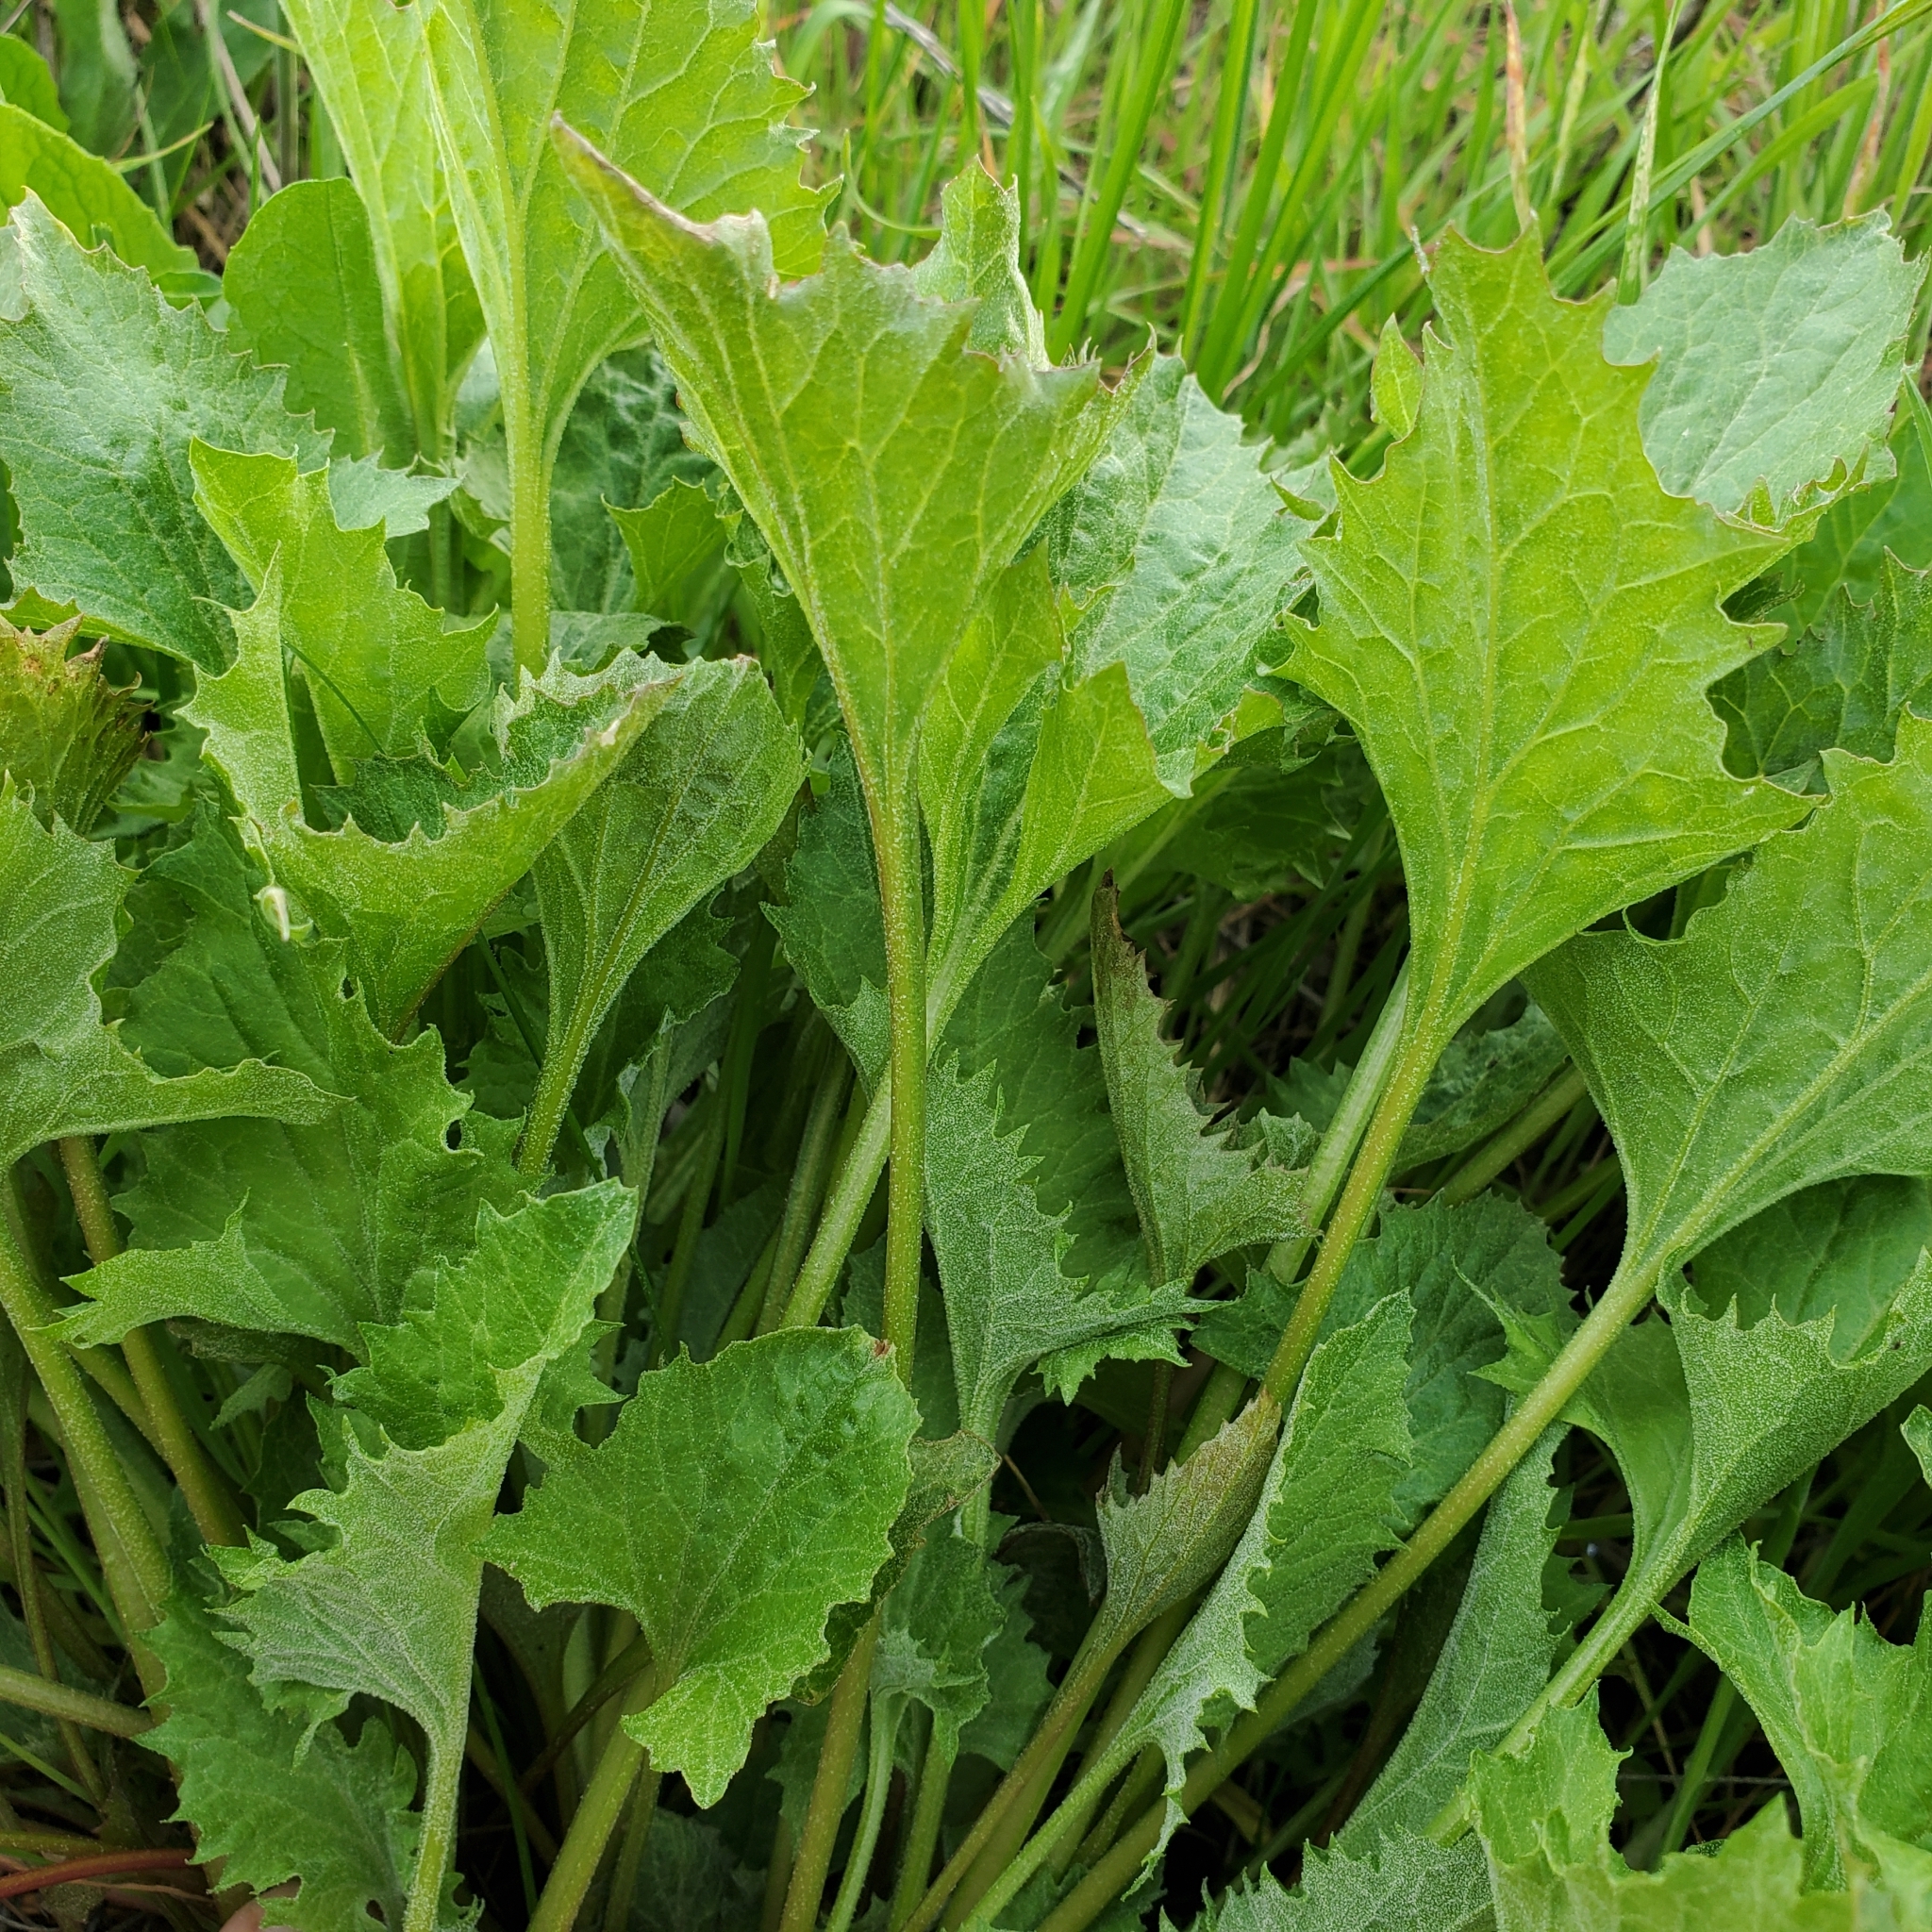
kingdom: Plantae
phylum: Tracheophyta
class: Magnoliopsida
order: Caryophyllales
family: Amaranthaceae
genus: Blitum
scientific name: Blitum californicum
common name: California goosefoot
